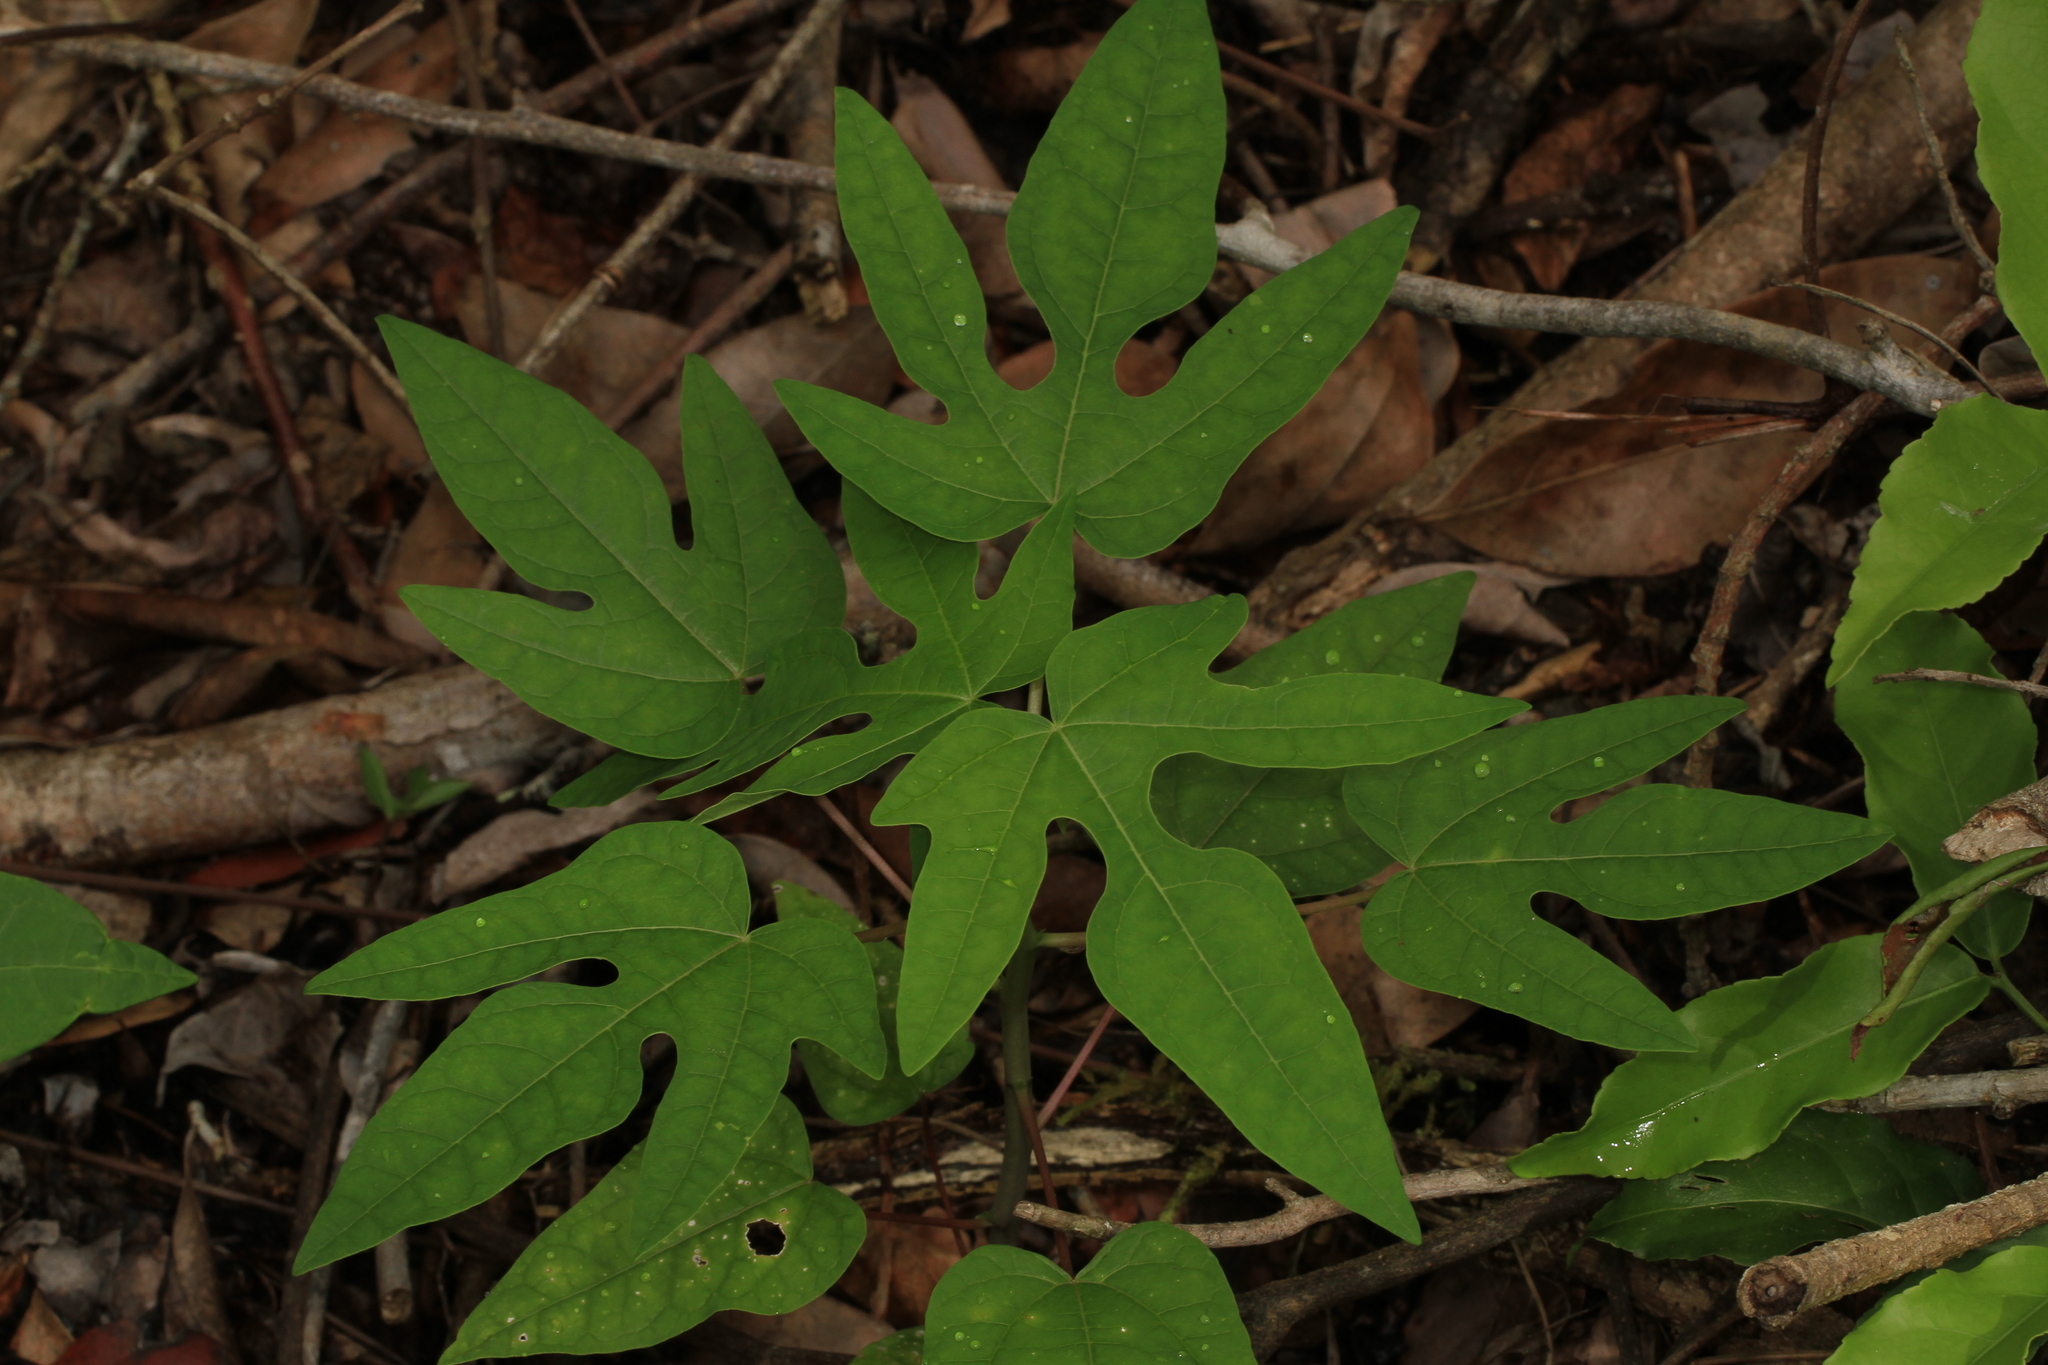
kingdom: Plantae
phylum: Tracheophyta
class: Magnoliopsida
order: Brassicales
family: Caricaceae
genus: Carica
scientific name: Carica papaya
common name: Papaya
